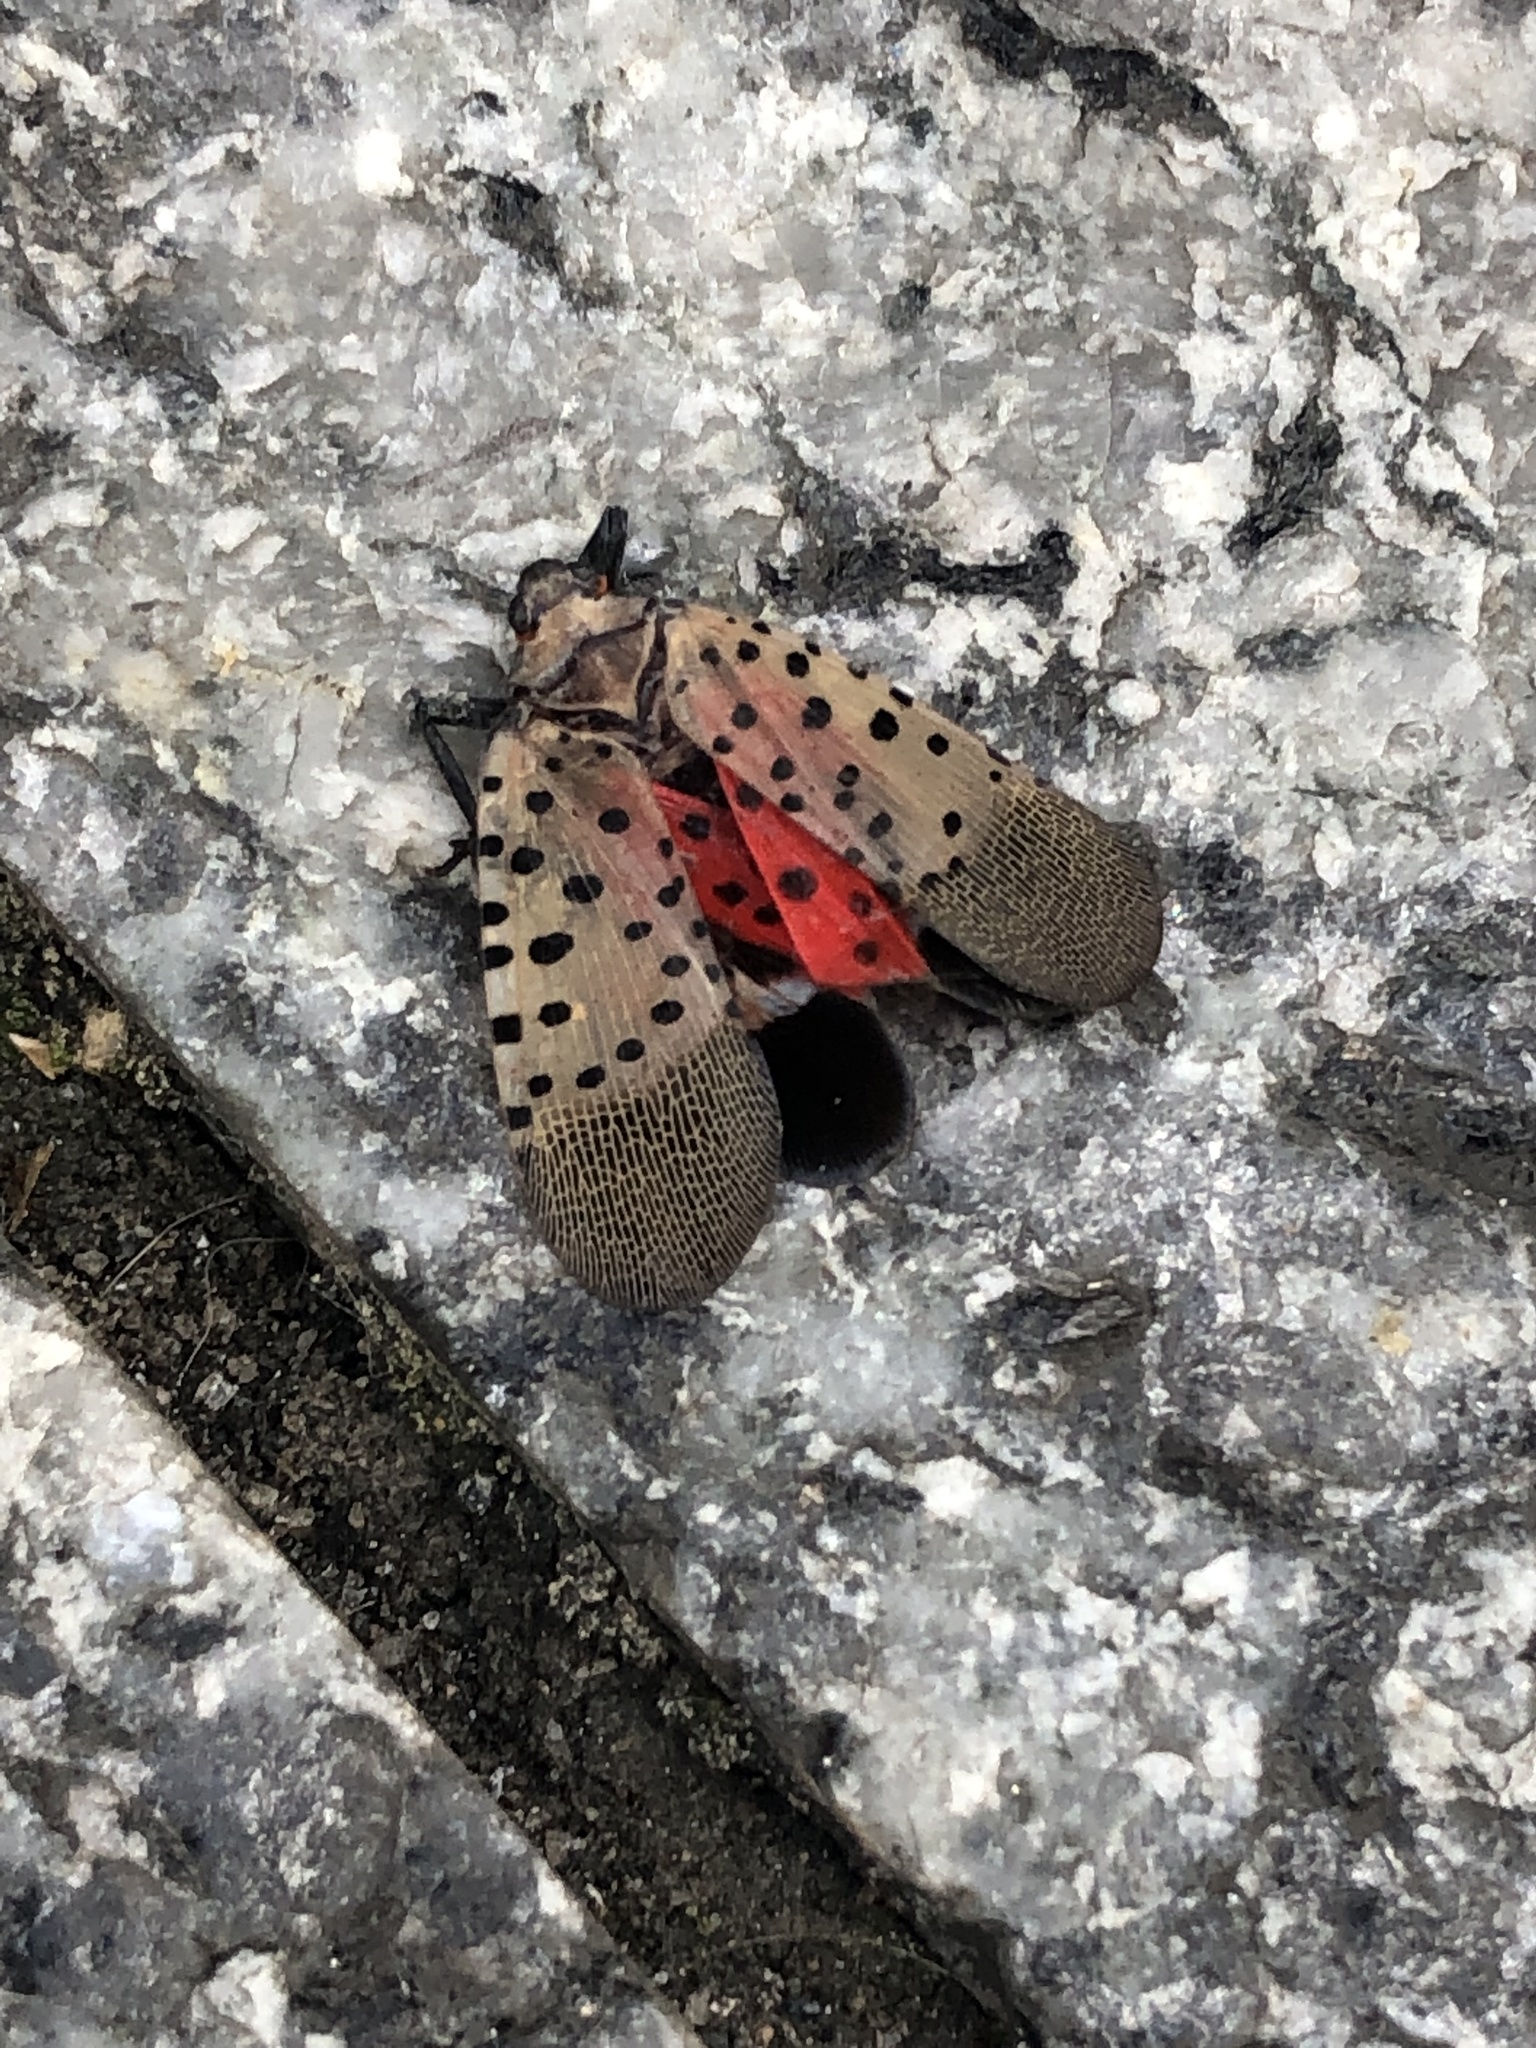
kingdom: Animalia
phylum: Arthropoda
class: Insecta
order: Hemiptera
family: Fulgoridae
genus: Lycorma
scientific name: Lycorma delicatula
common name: Spotted lanternfly
